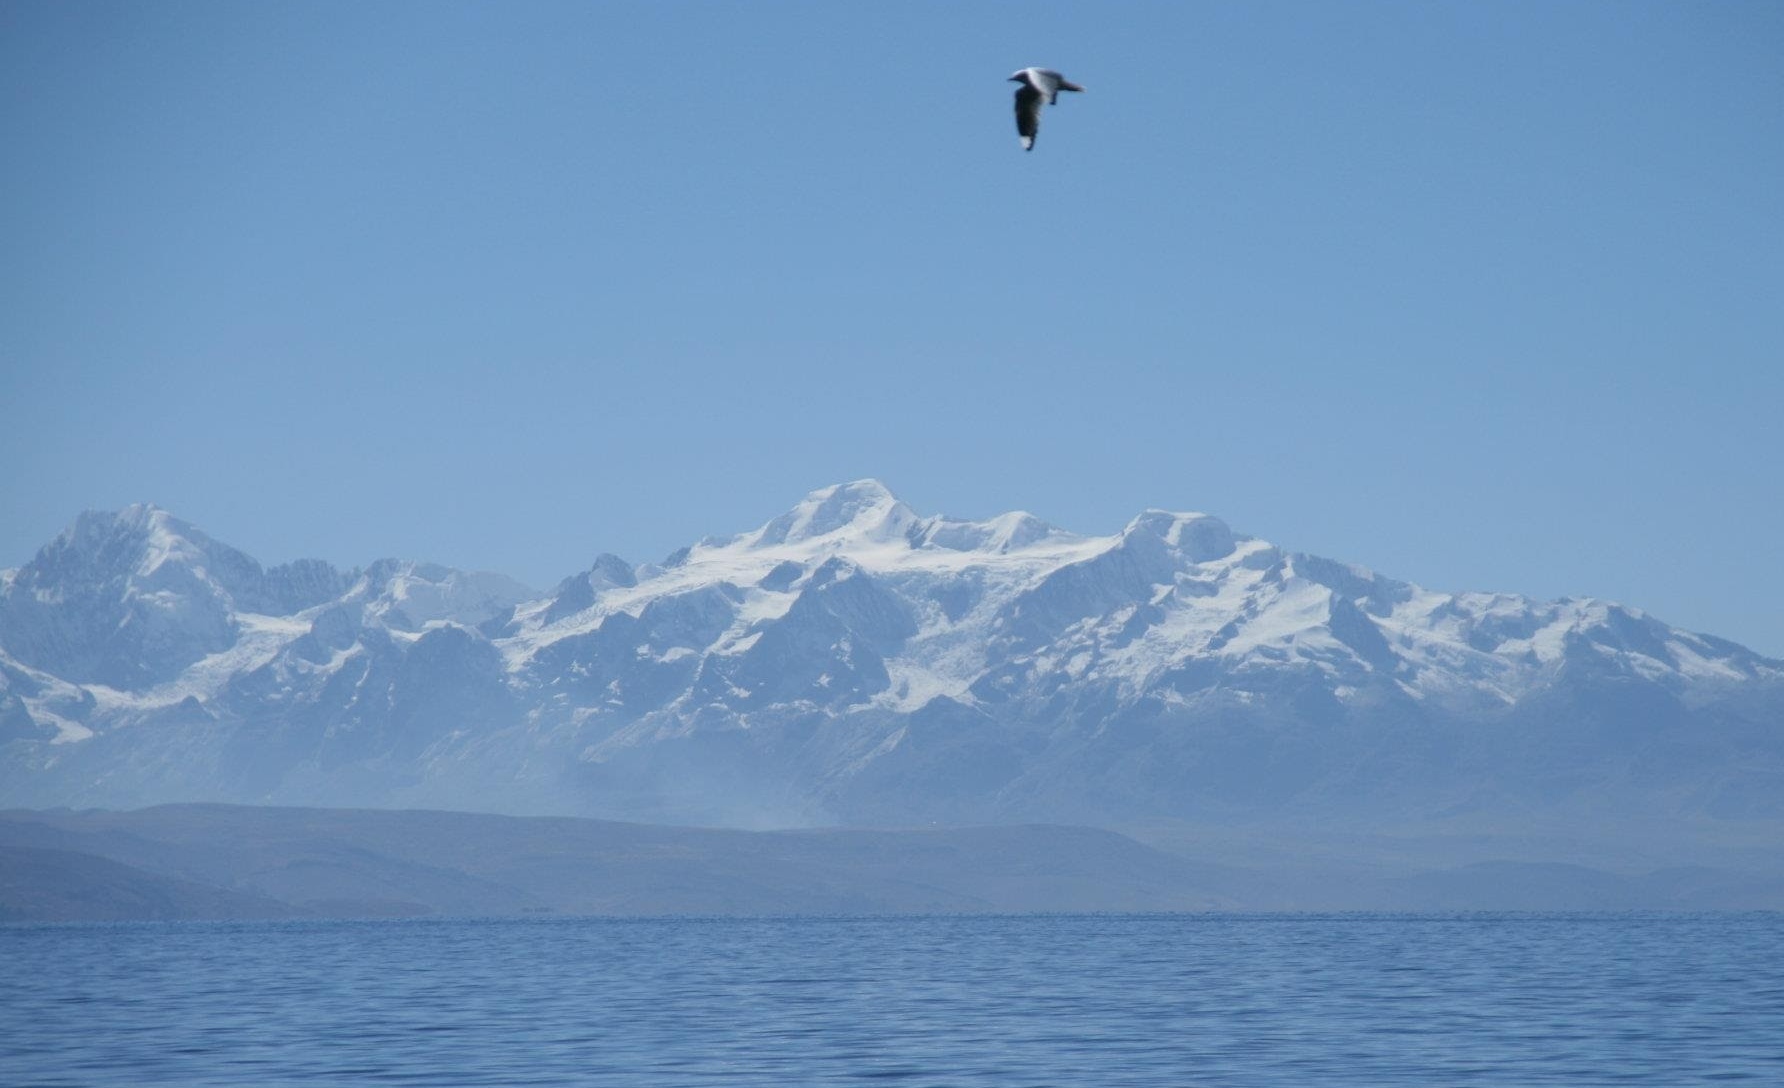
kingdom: Animalia
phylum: Chordata
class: Aves
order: Charadriiformes
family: Laridae
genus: Chroicocephalus
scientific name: Chroicocephalus serranus
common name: Andean gull
